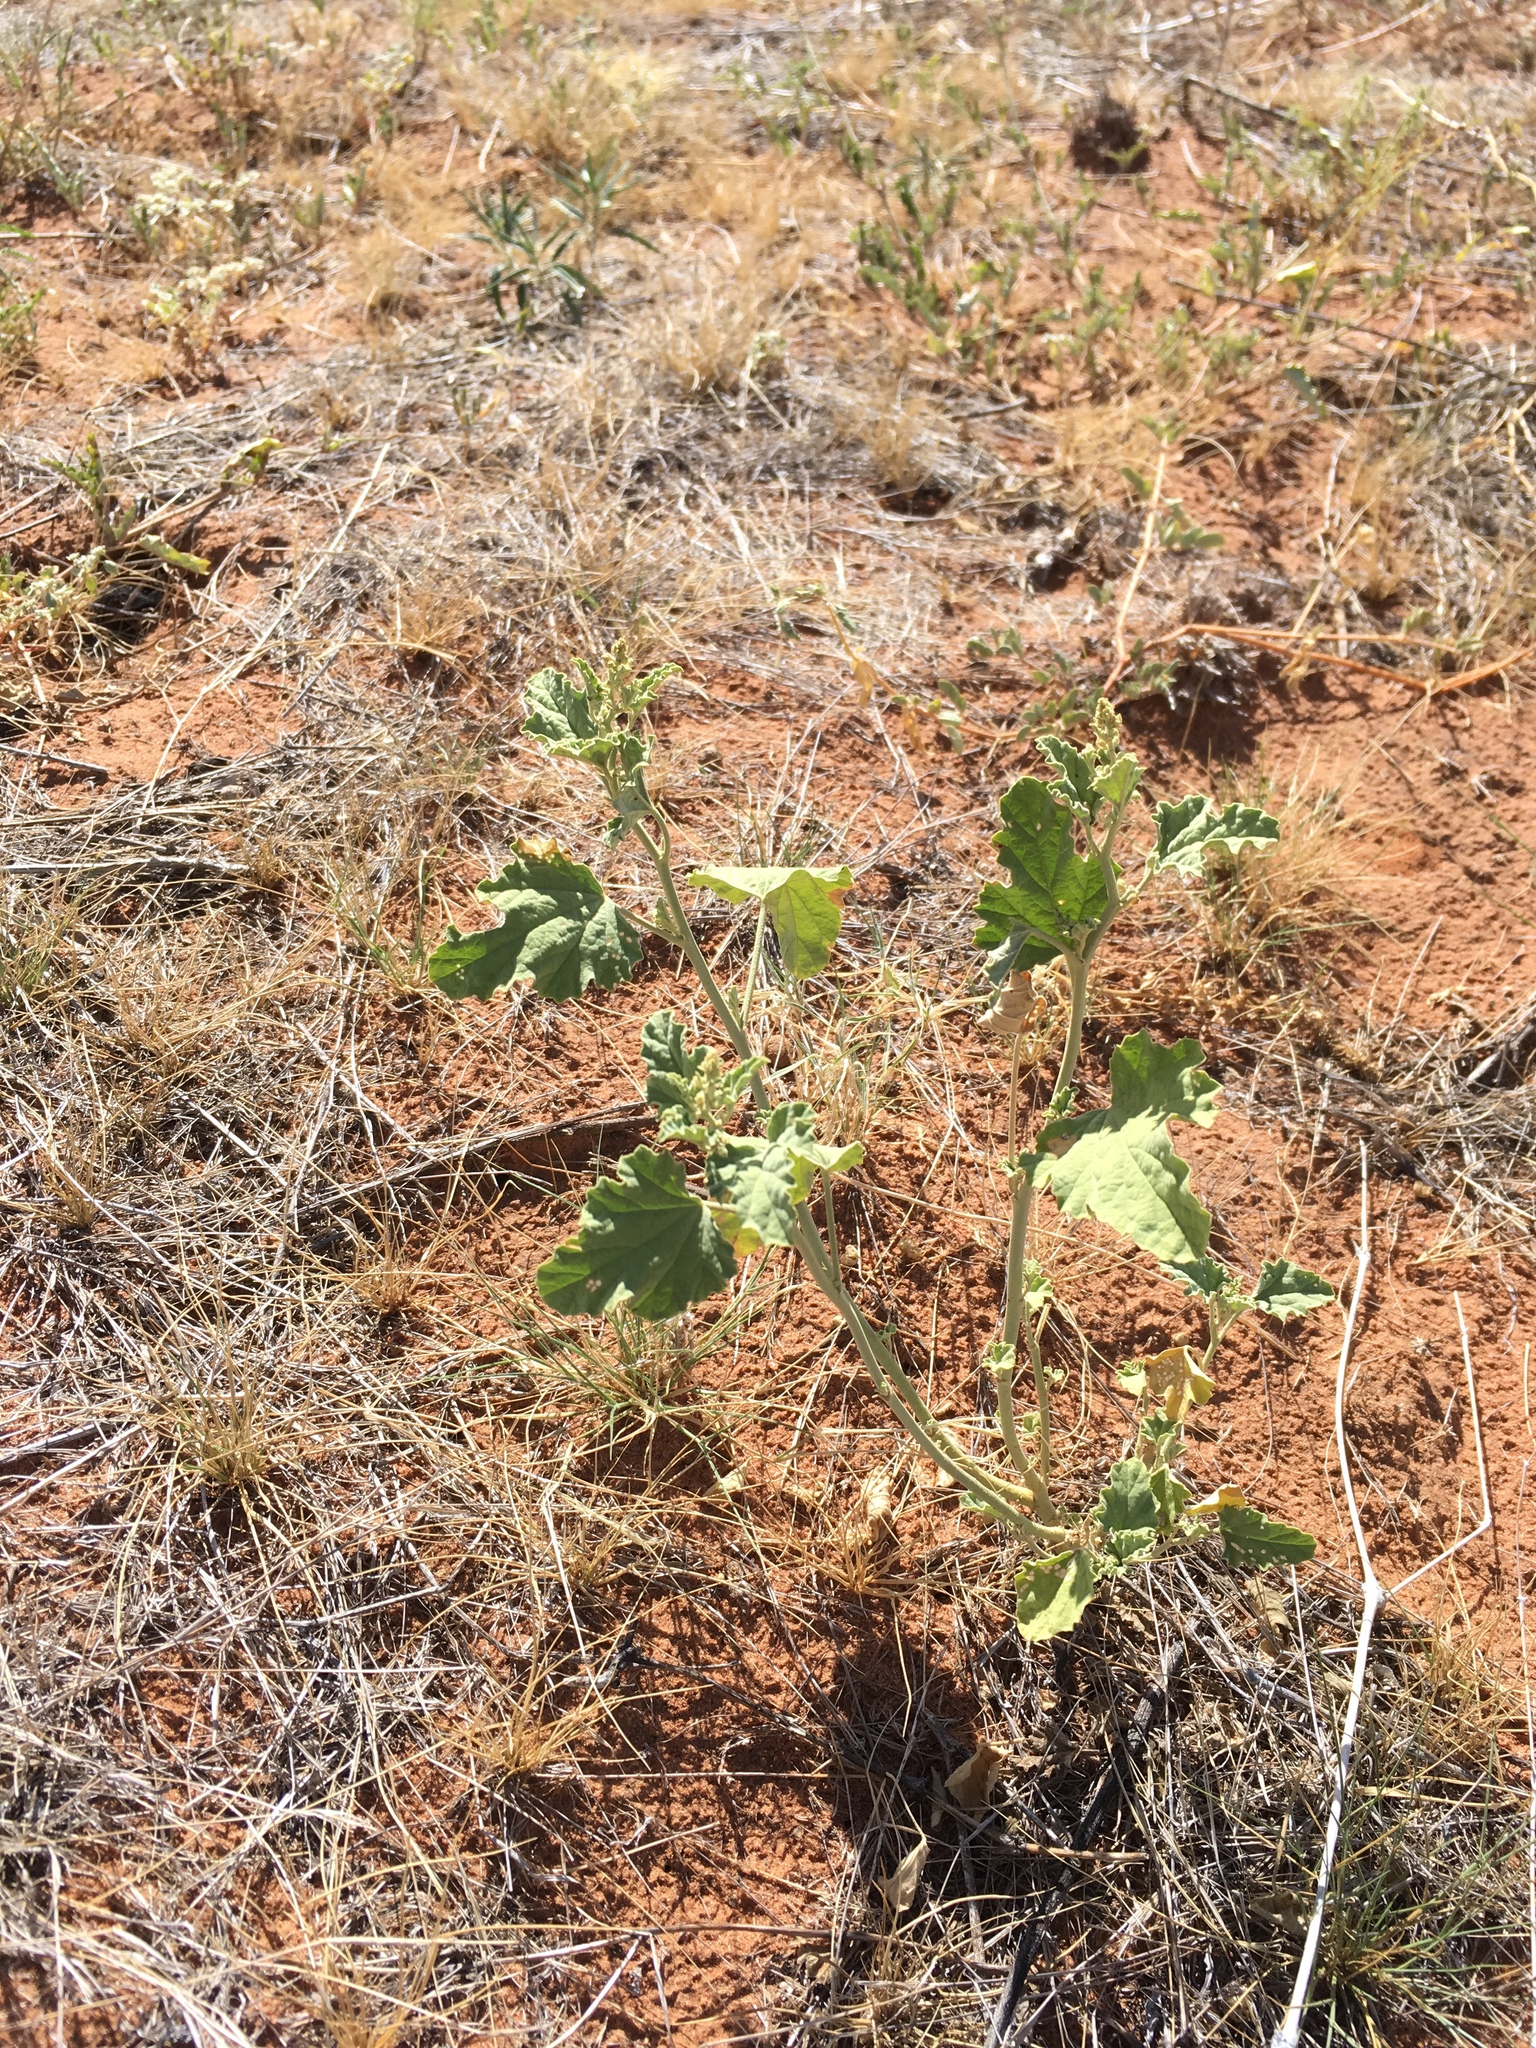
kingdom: Plantae
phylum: Tracheophyta
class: Magnoliopsida
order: Malvales
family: Malvaceae
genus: Sphaeralcea
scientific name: Sphaeralcea incana
